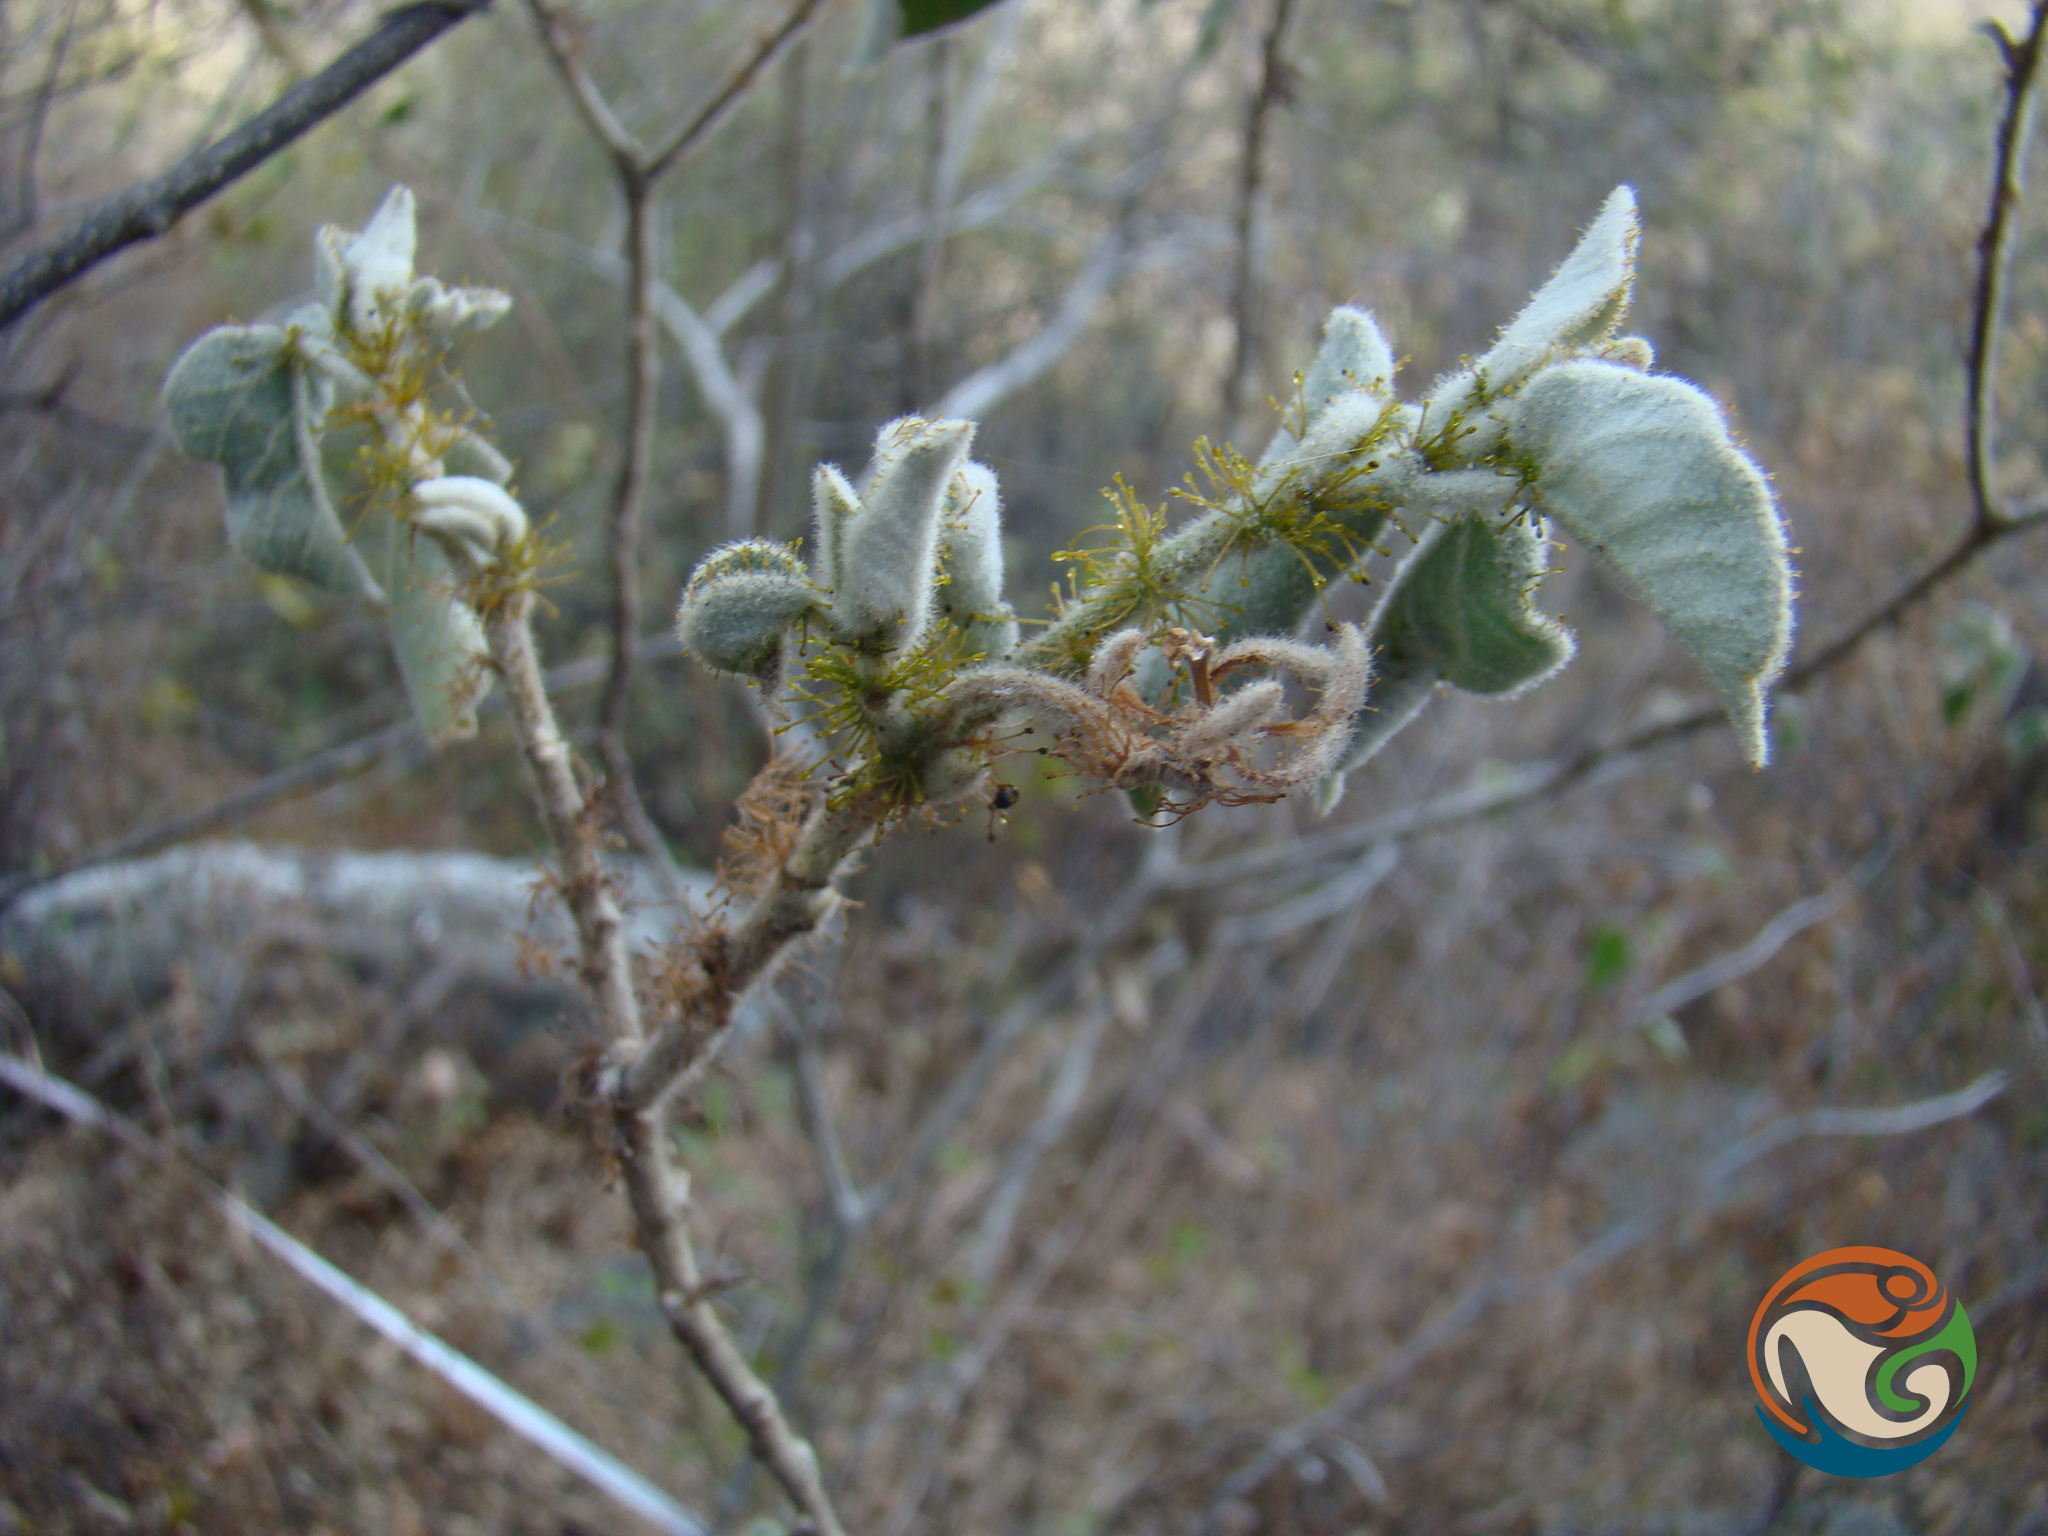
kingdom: Plantae
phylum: Tracheophyta
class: Magnoliopsida
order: Malpighiales
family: Euphorbiaceae
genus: Croton
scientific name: Croton ciliatoglandulifer
